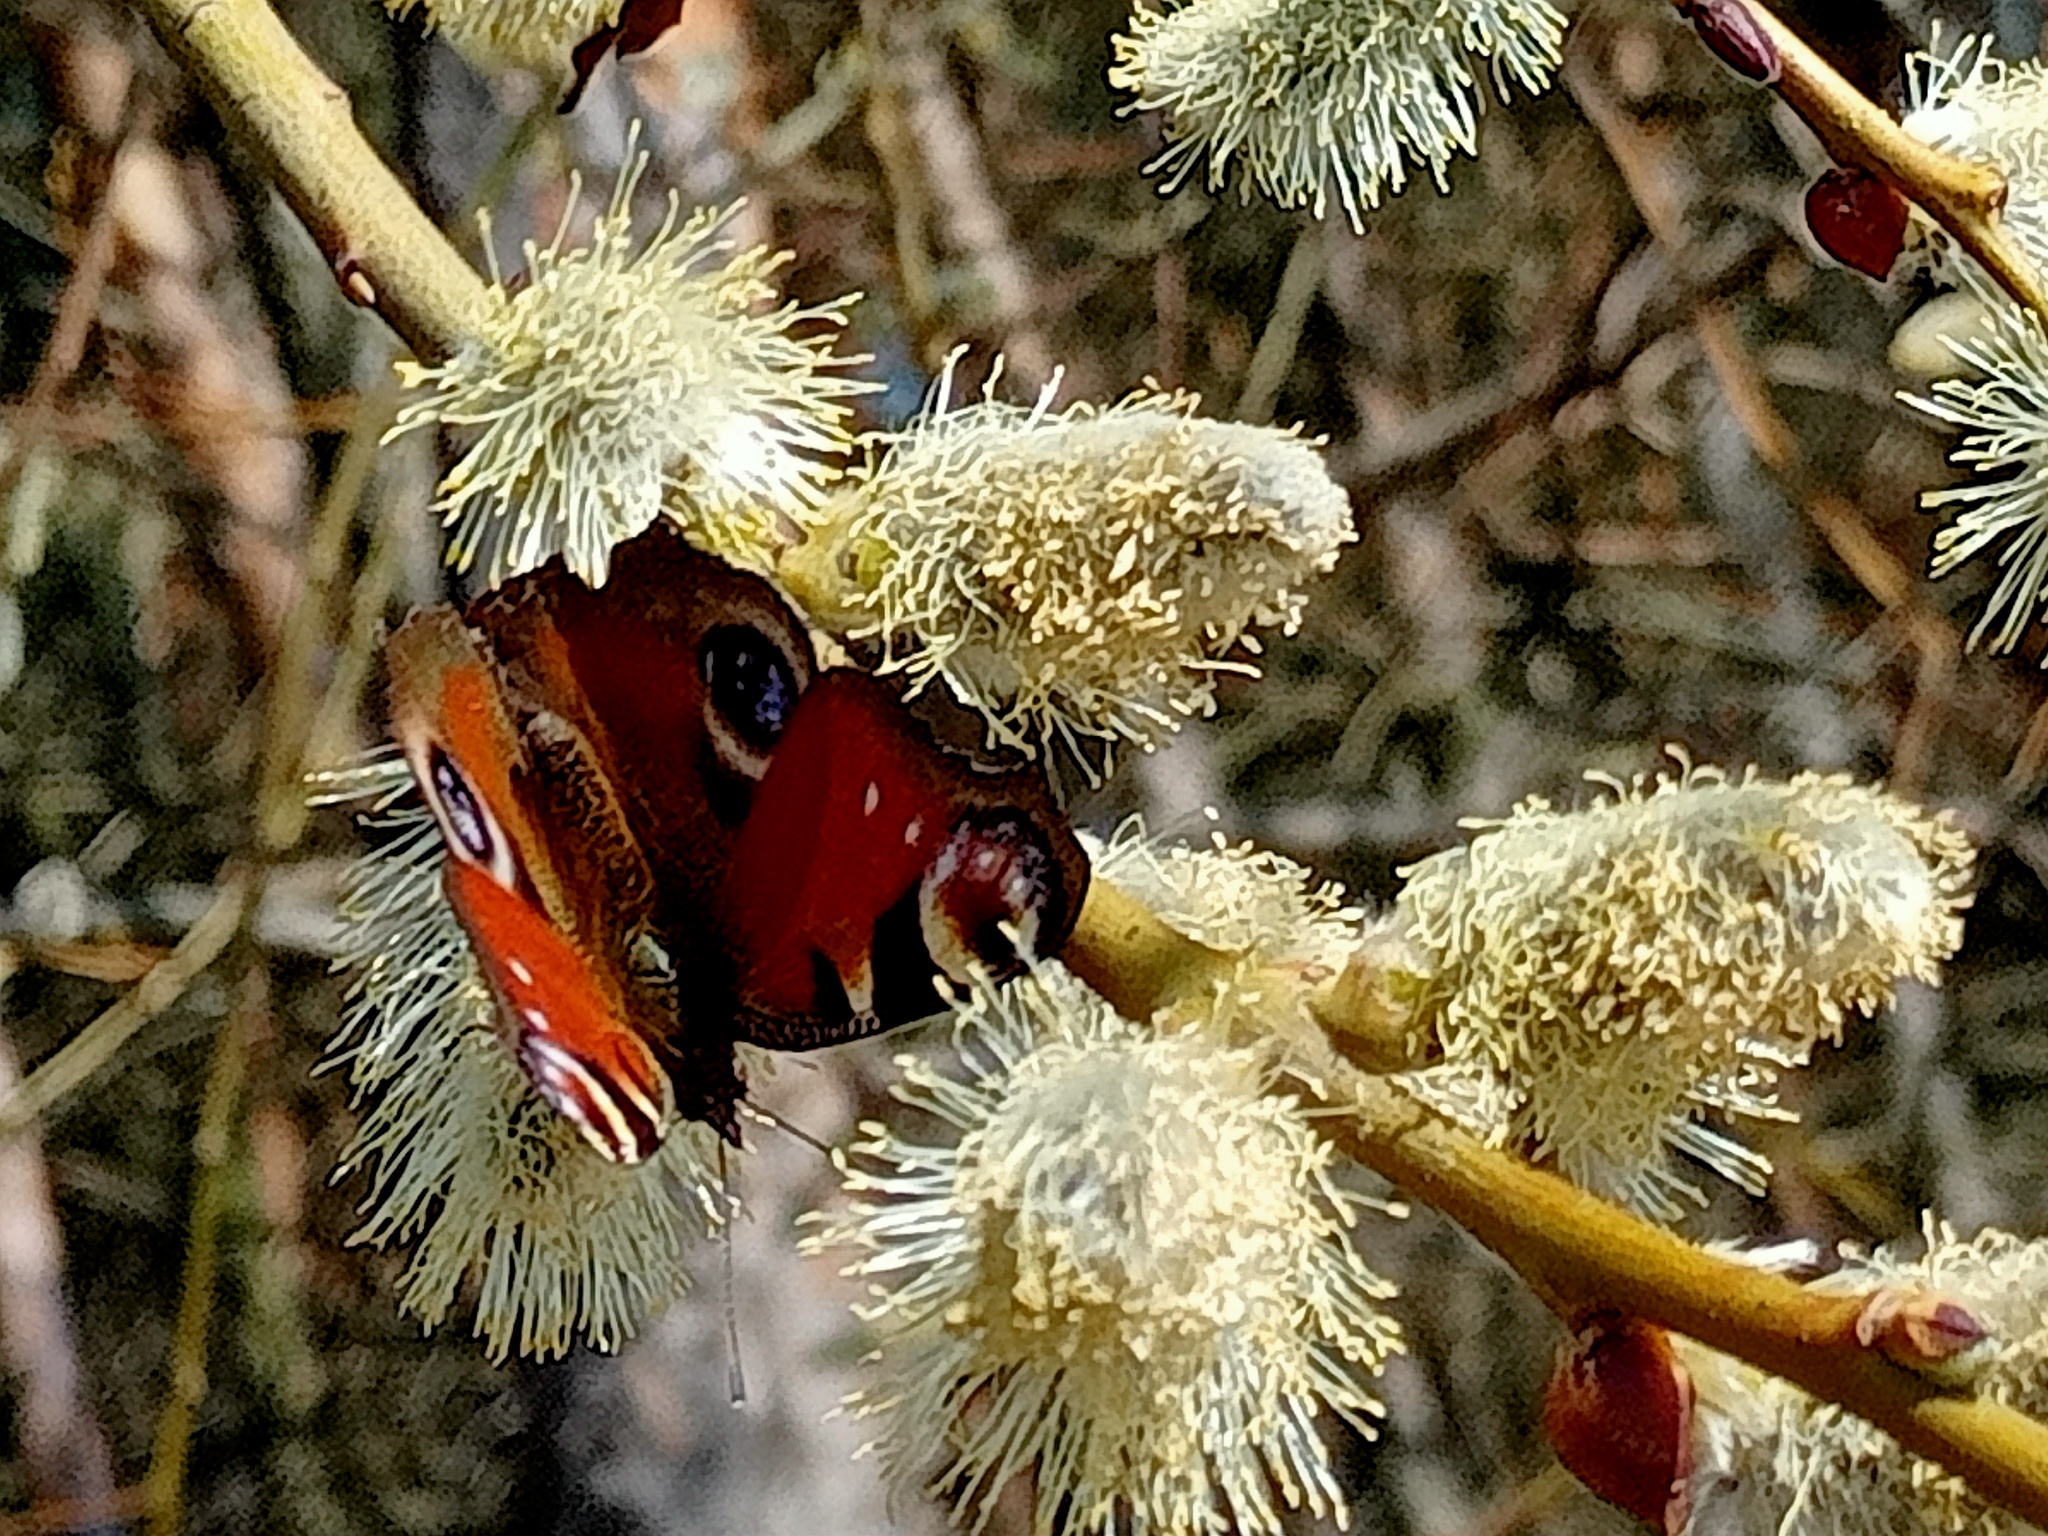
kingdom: Animalia
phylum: Arthropoda
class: Insecta
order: Lepidoptera
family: Nymphalidae
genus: Aglais
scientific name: Aglais io
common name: Peacock
